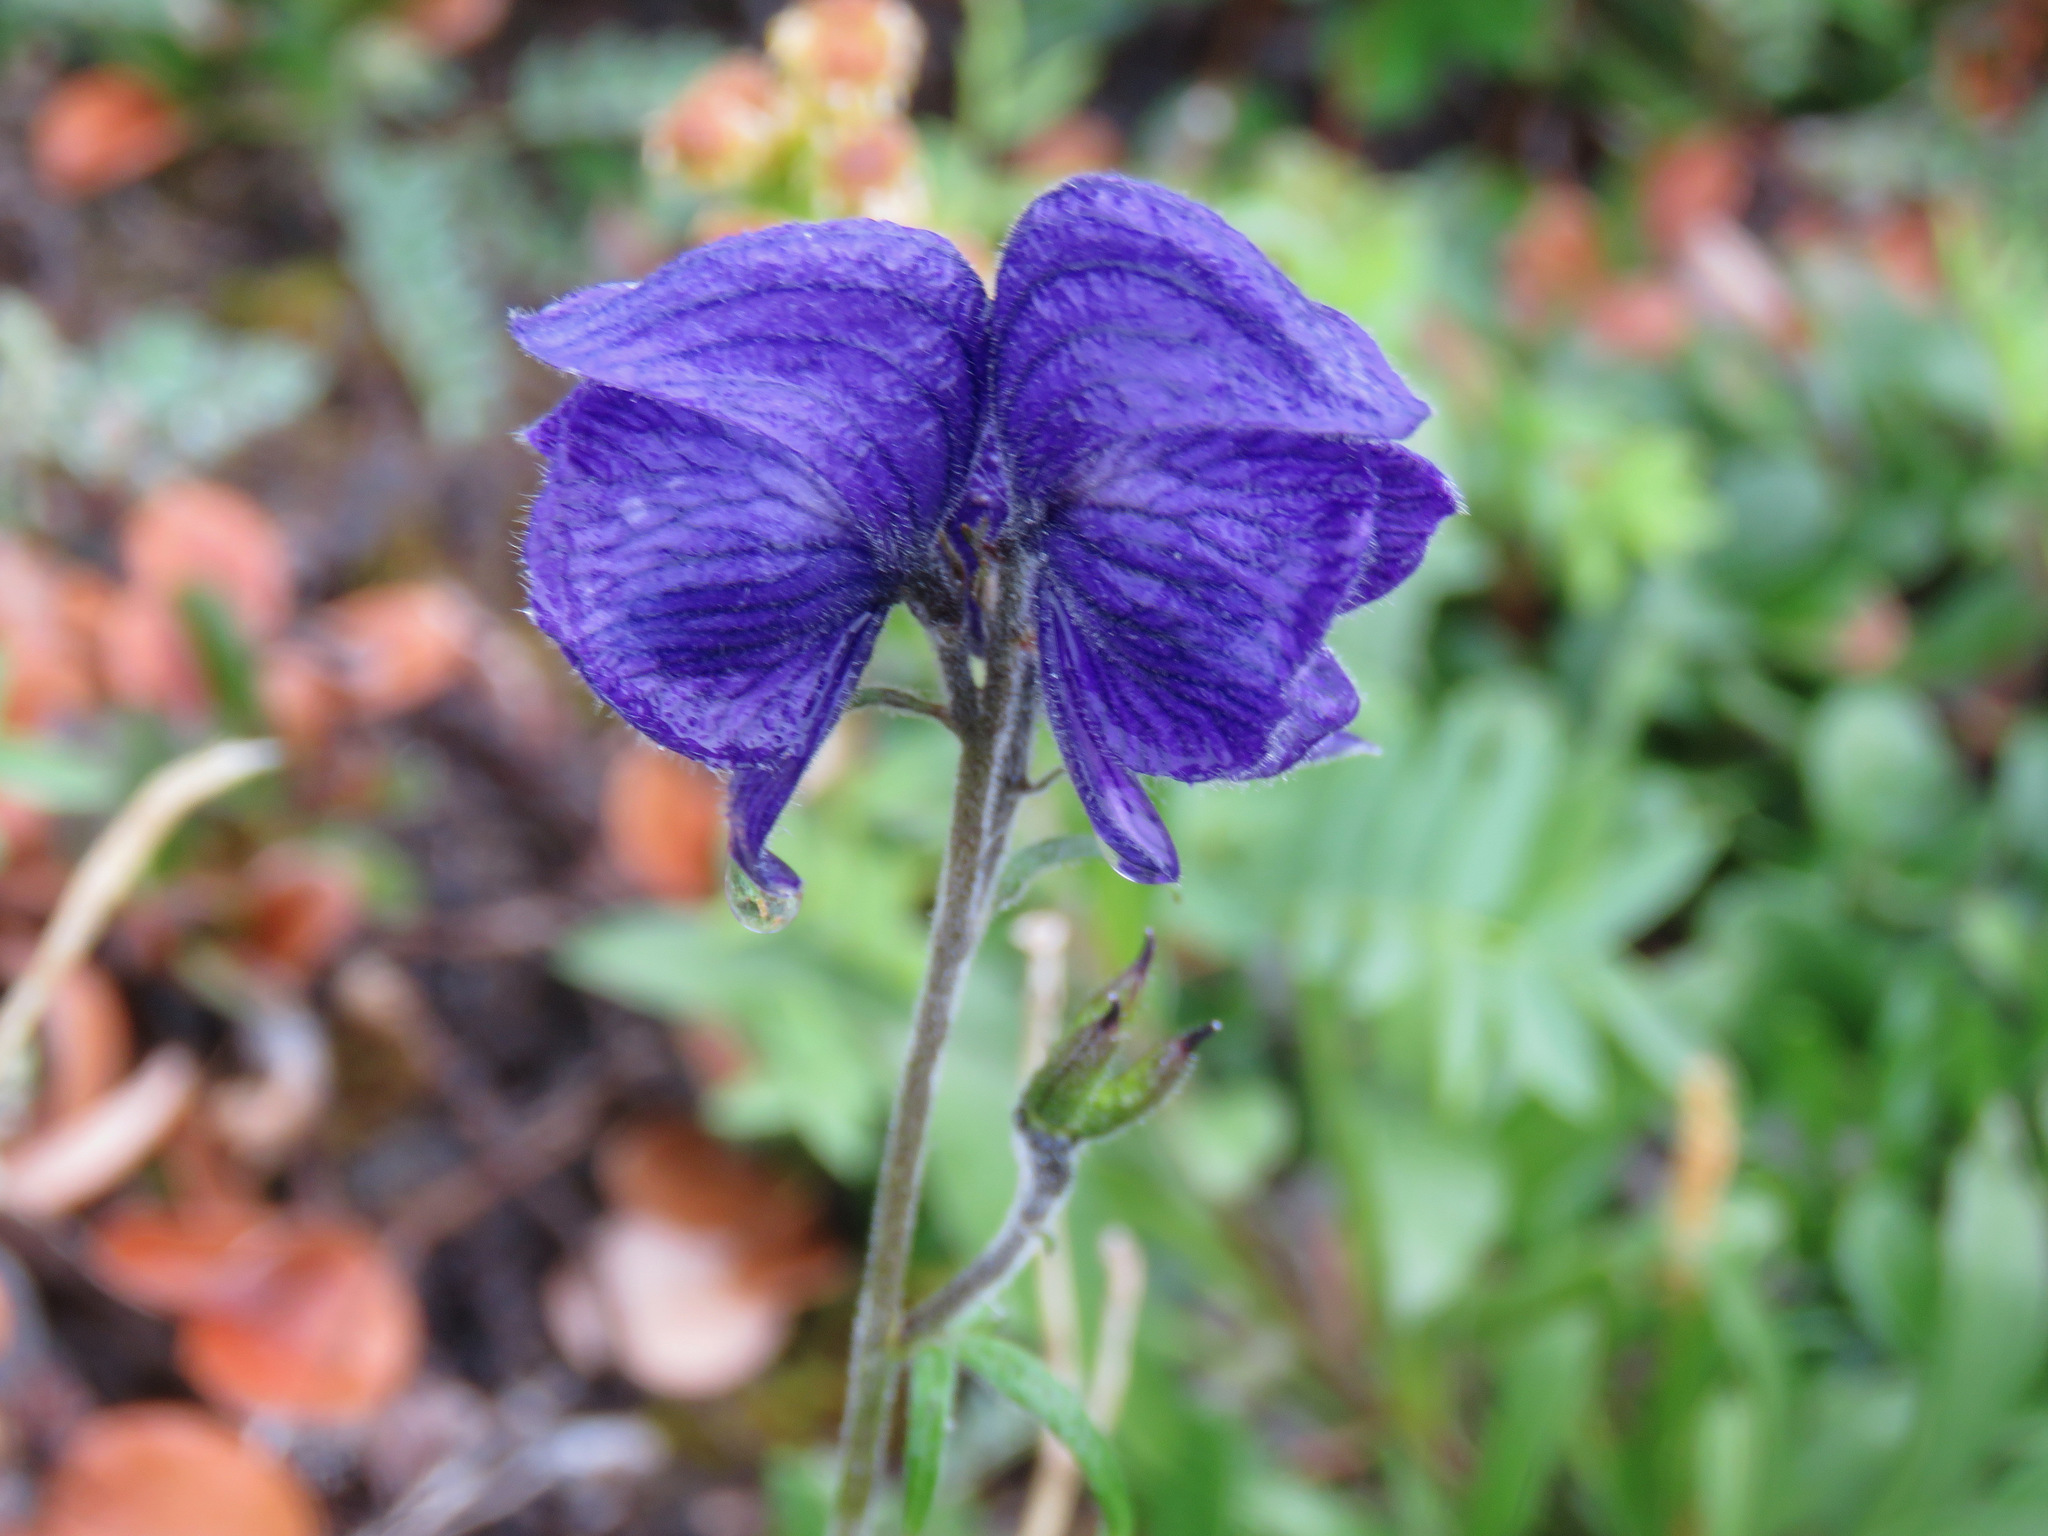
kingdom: Plantae
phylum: Tracheophyta
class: Magnoliopsida
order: Ranunculales
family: Ranunculaceae
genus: Aconitum
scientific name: Aconitum delphiniifolium
